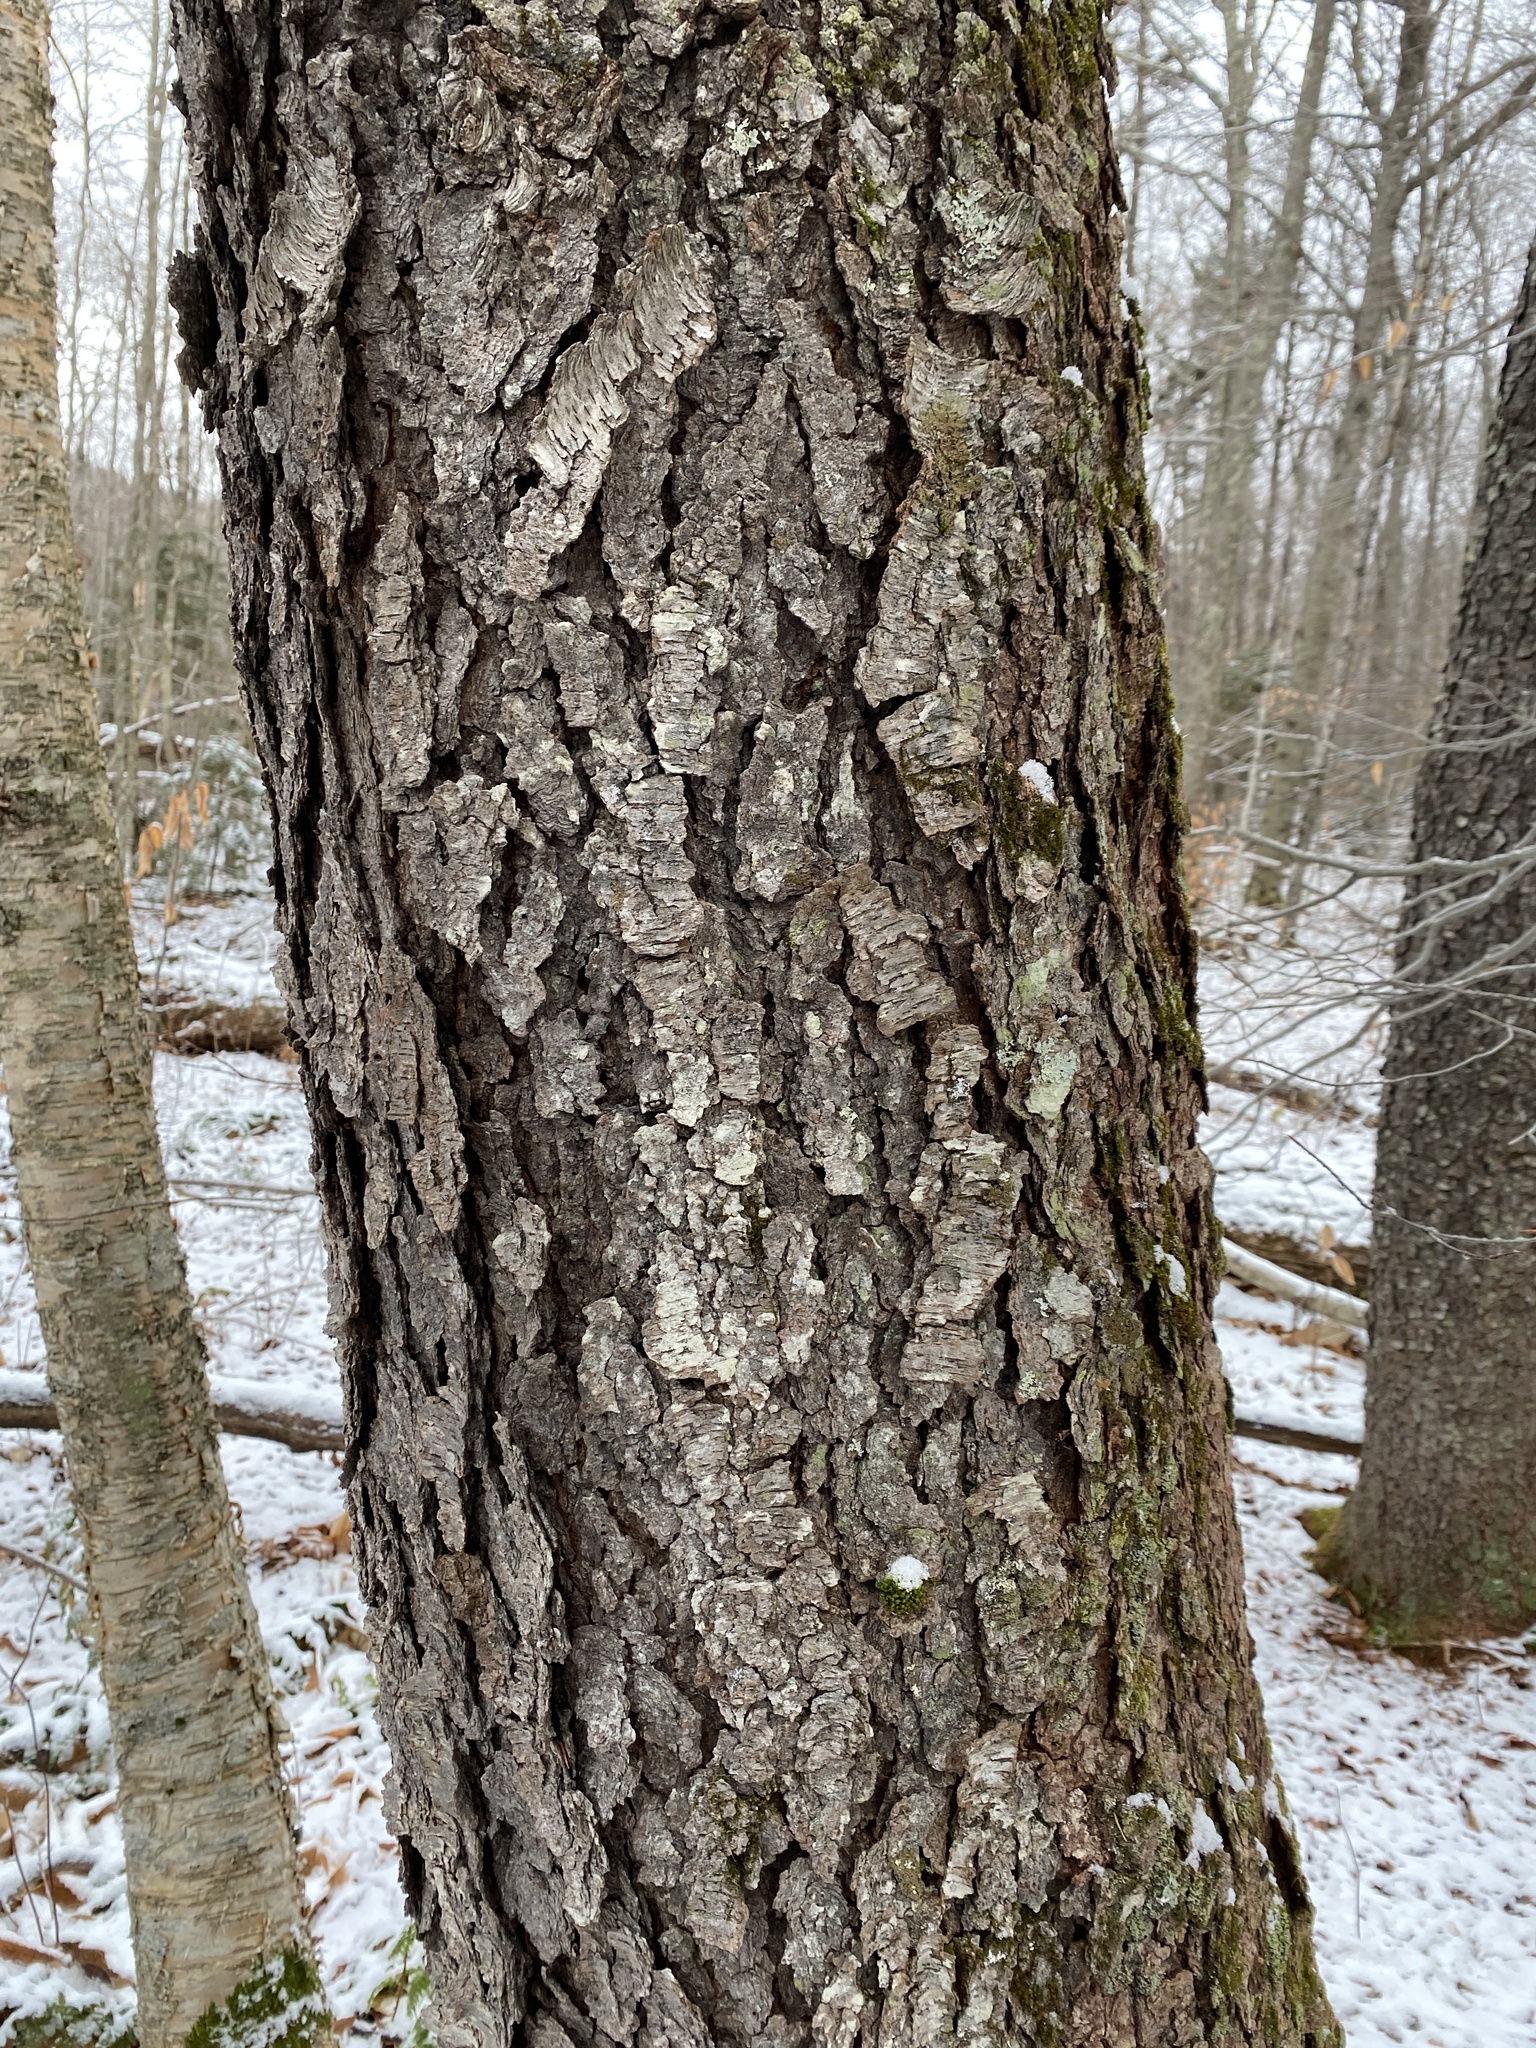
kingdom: Plantae
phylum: Tracheophyta
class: Magnoliopsida
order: Rosales
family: Rosaceae
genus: Prunus
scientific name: Prunus serotina
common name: Black cherry
